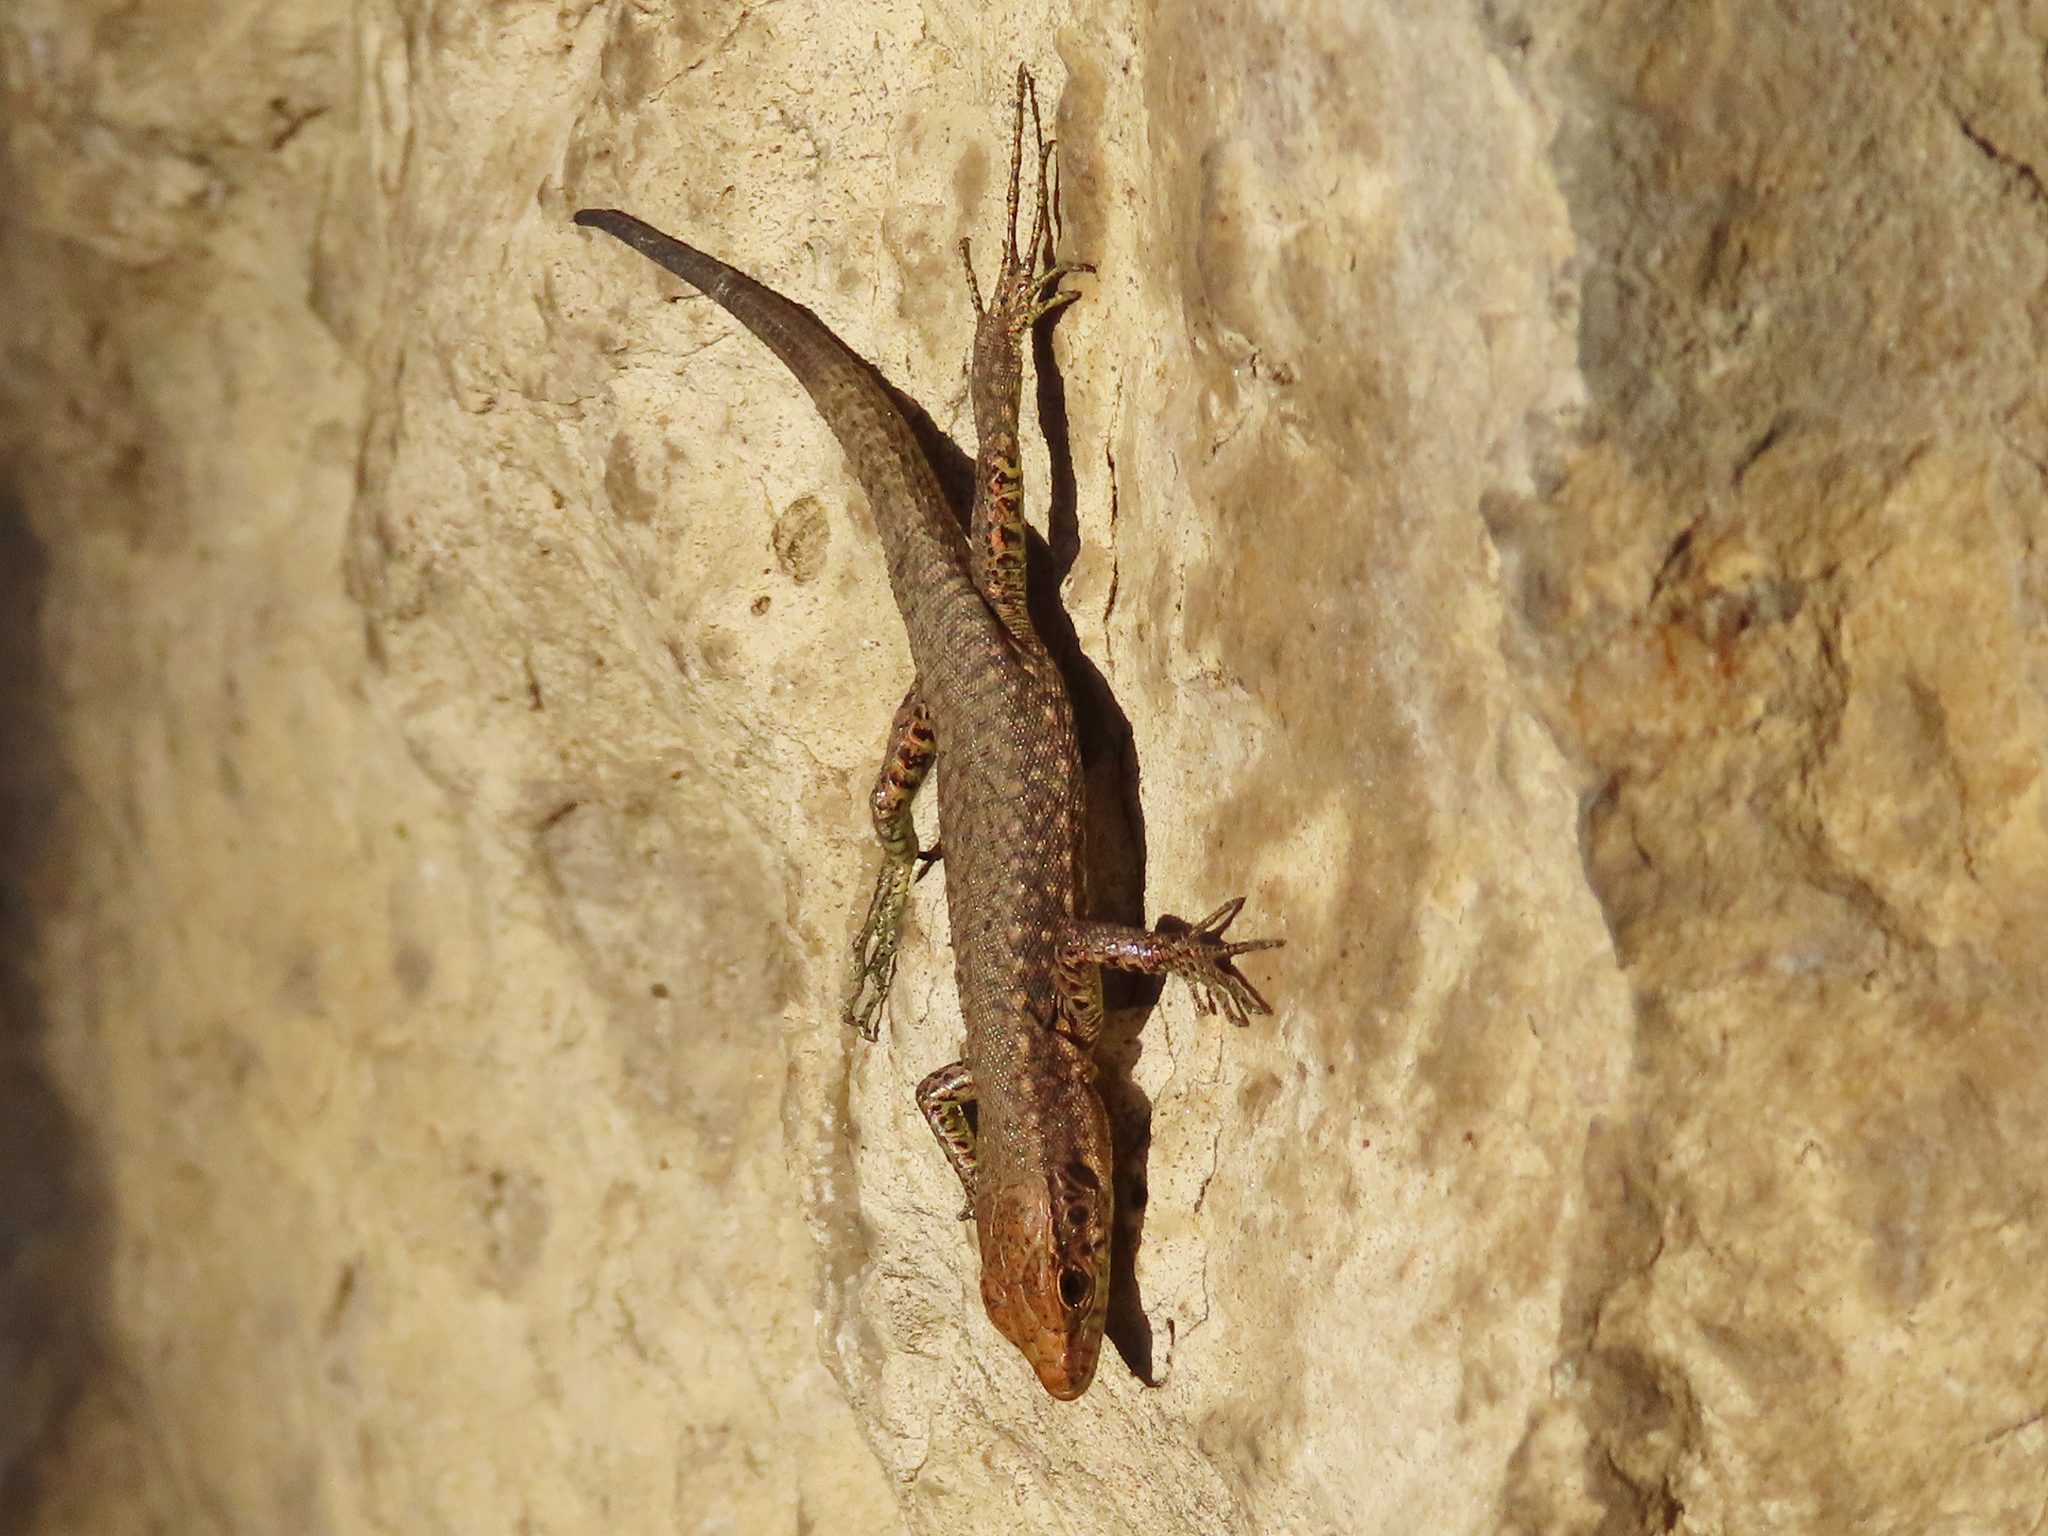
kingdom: Animalia
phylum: Chordata
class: Squamata
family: Lacertidae
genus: Darevskia
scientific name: Darevskia mixta
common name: Ajarian lizard
